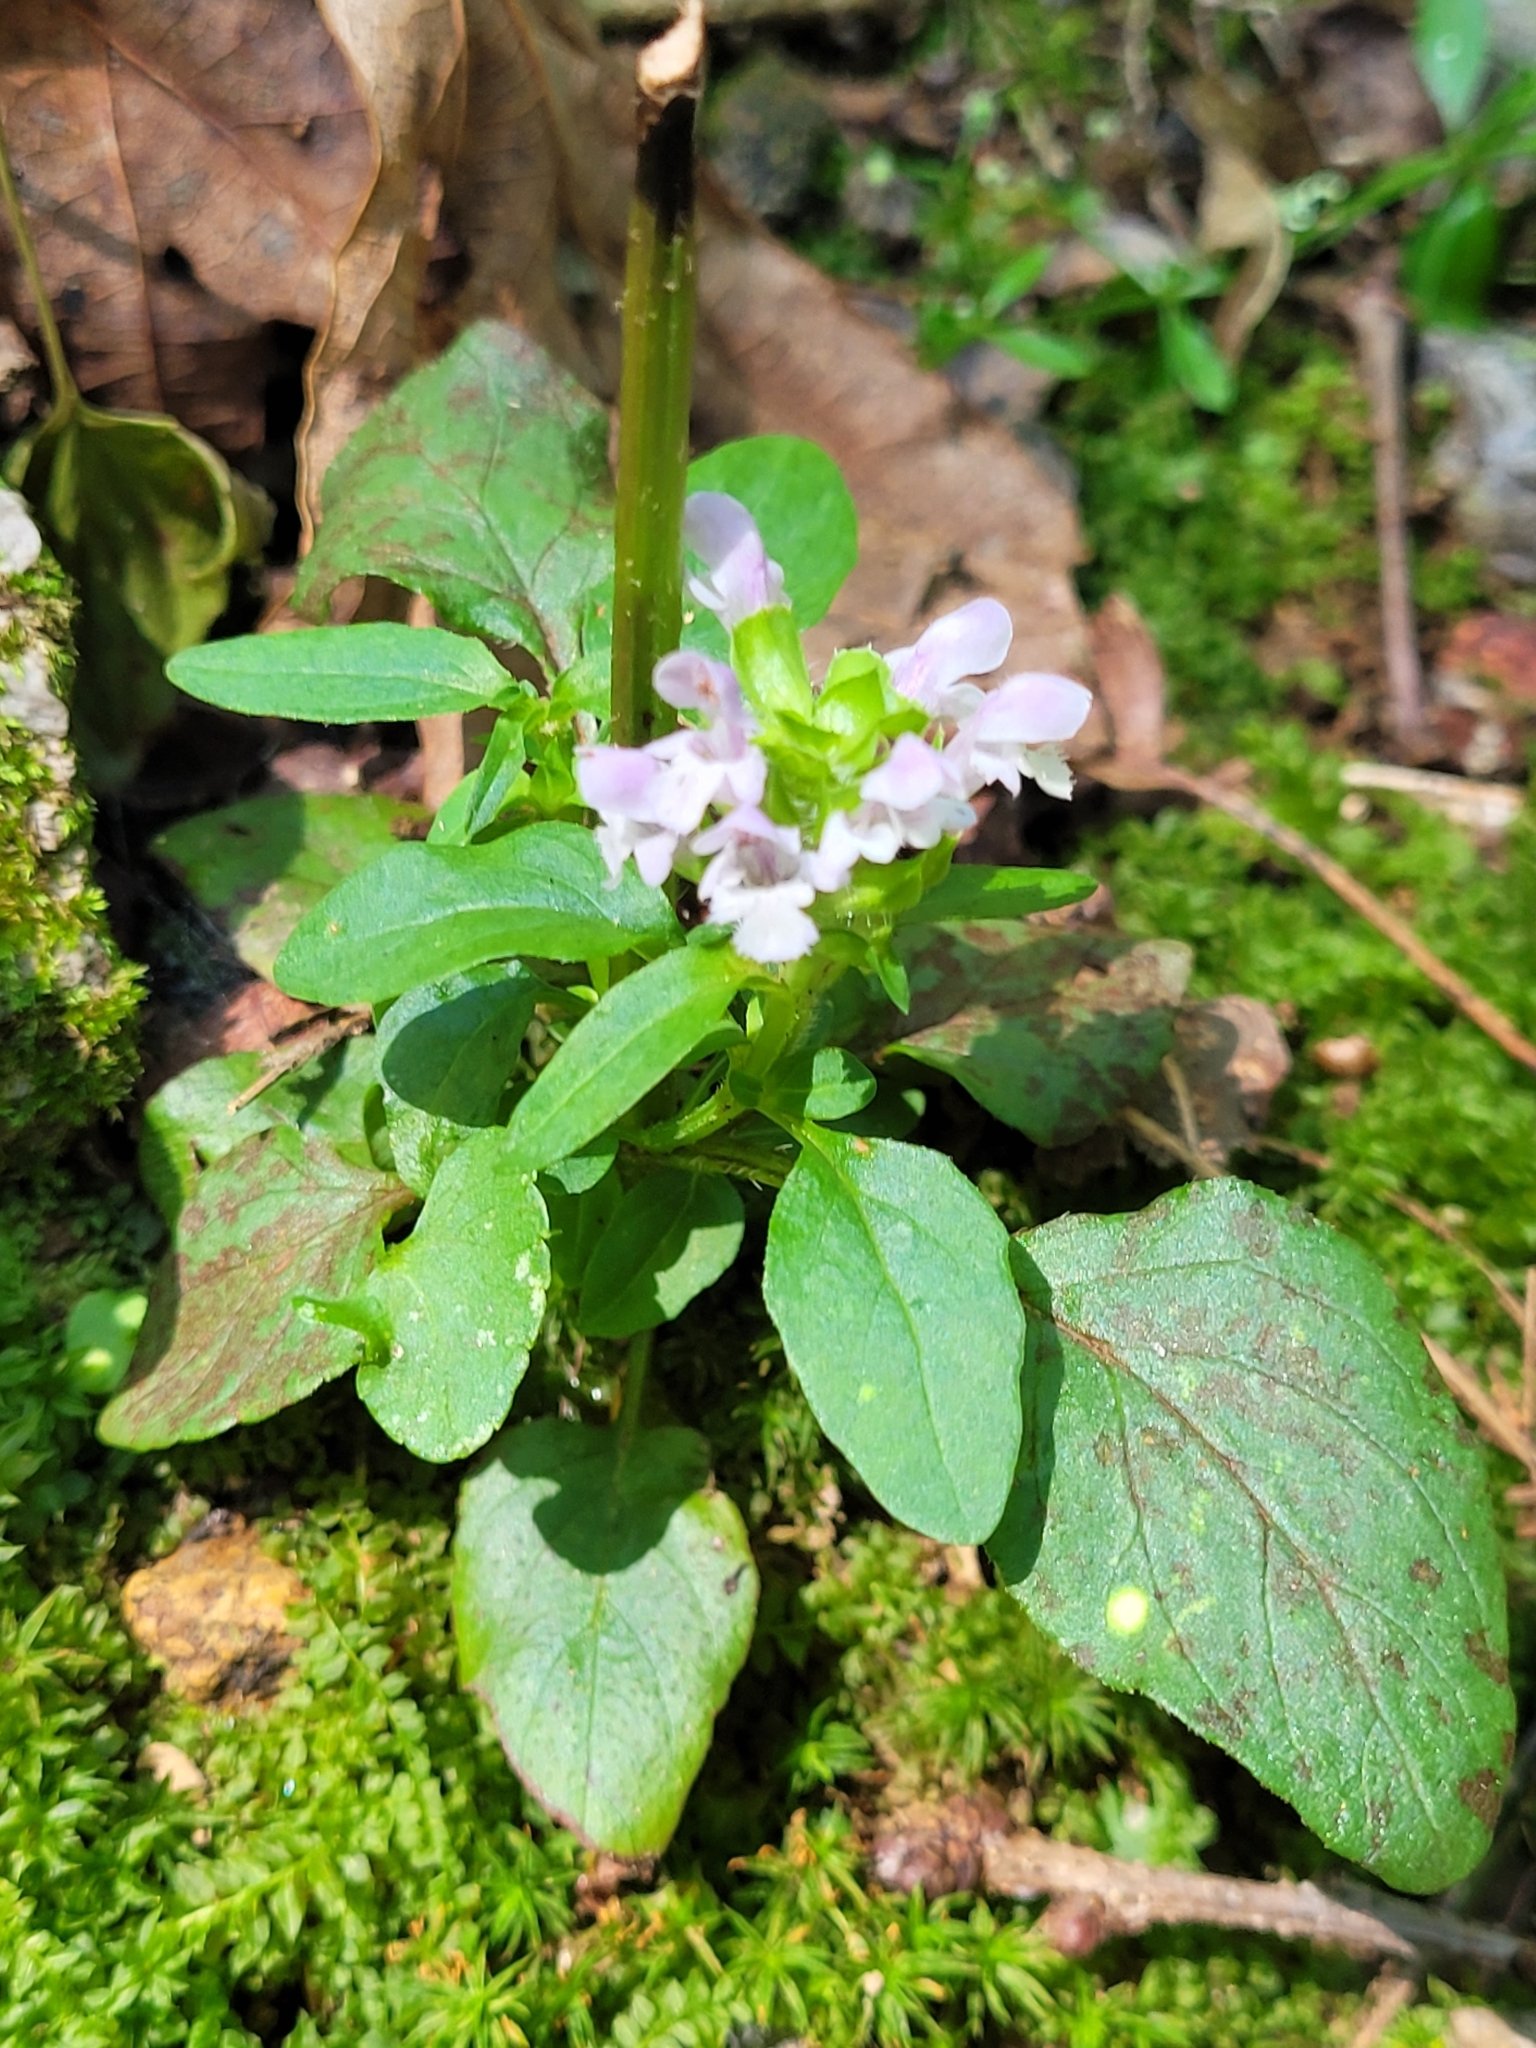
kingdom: Plantae
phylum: Tracheophyta
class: Magnoliopsida
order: Lamiales
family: Lamiaceae
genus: Prunella
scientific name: Prunella vulgaris
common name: Heal-all
